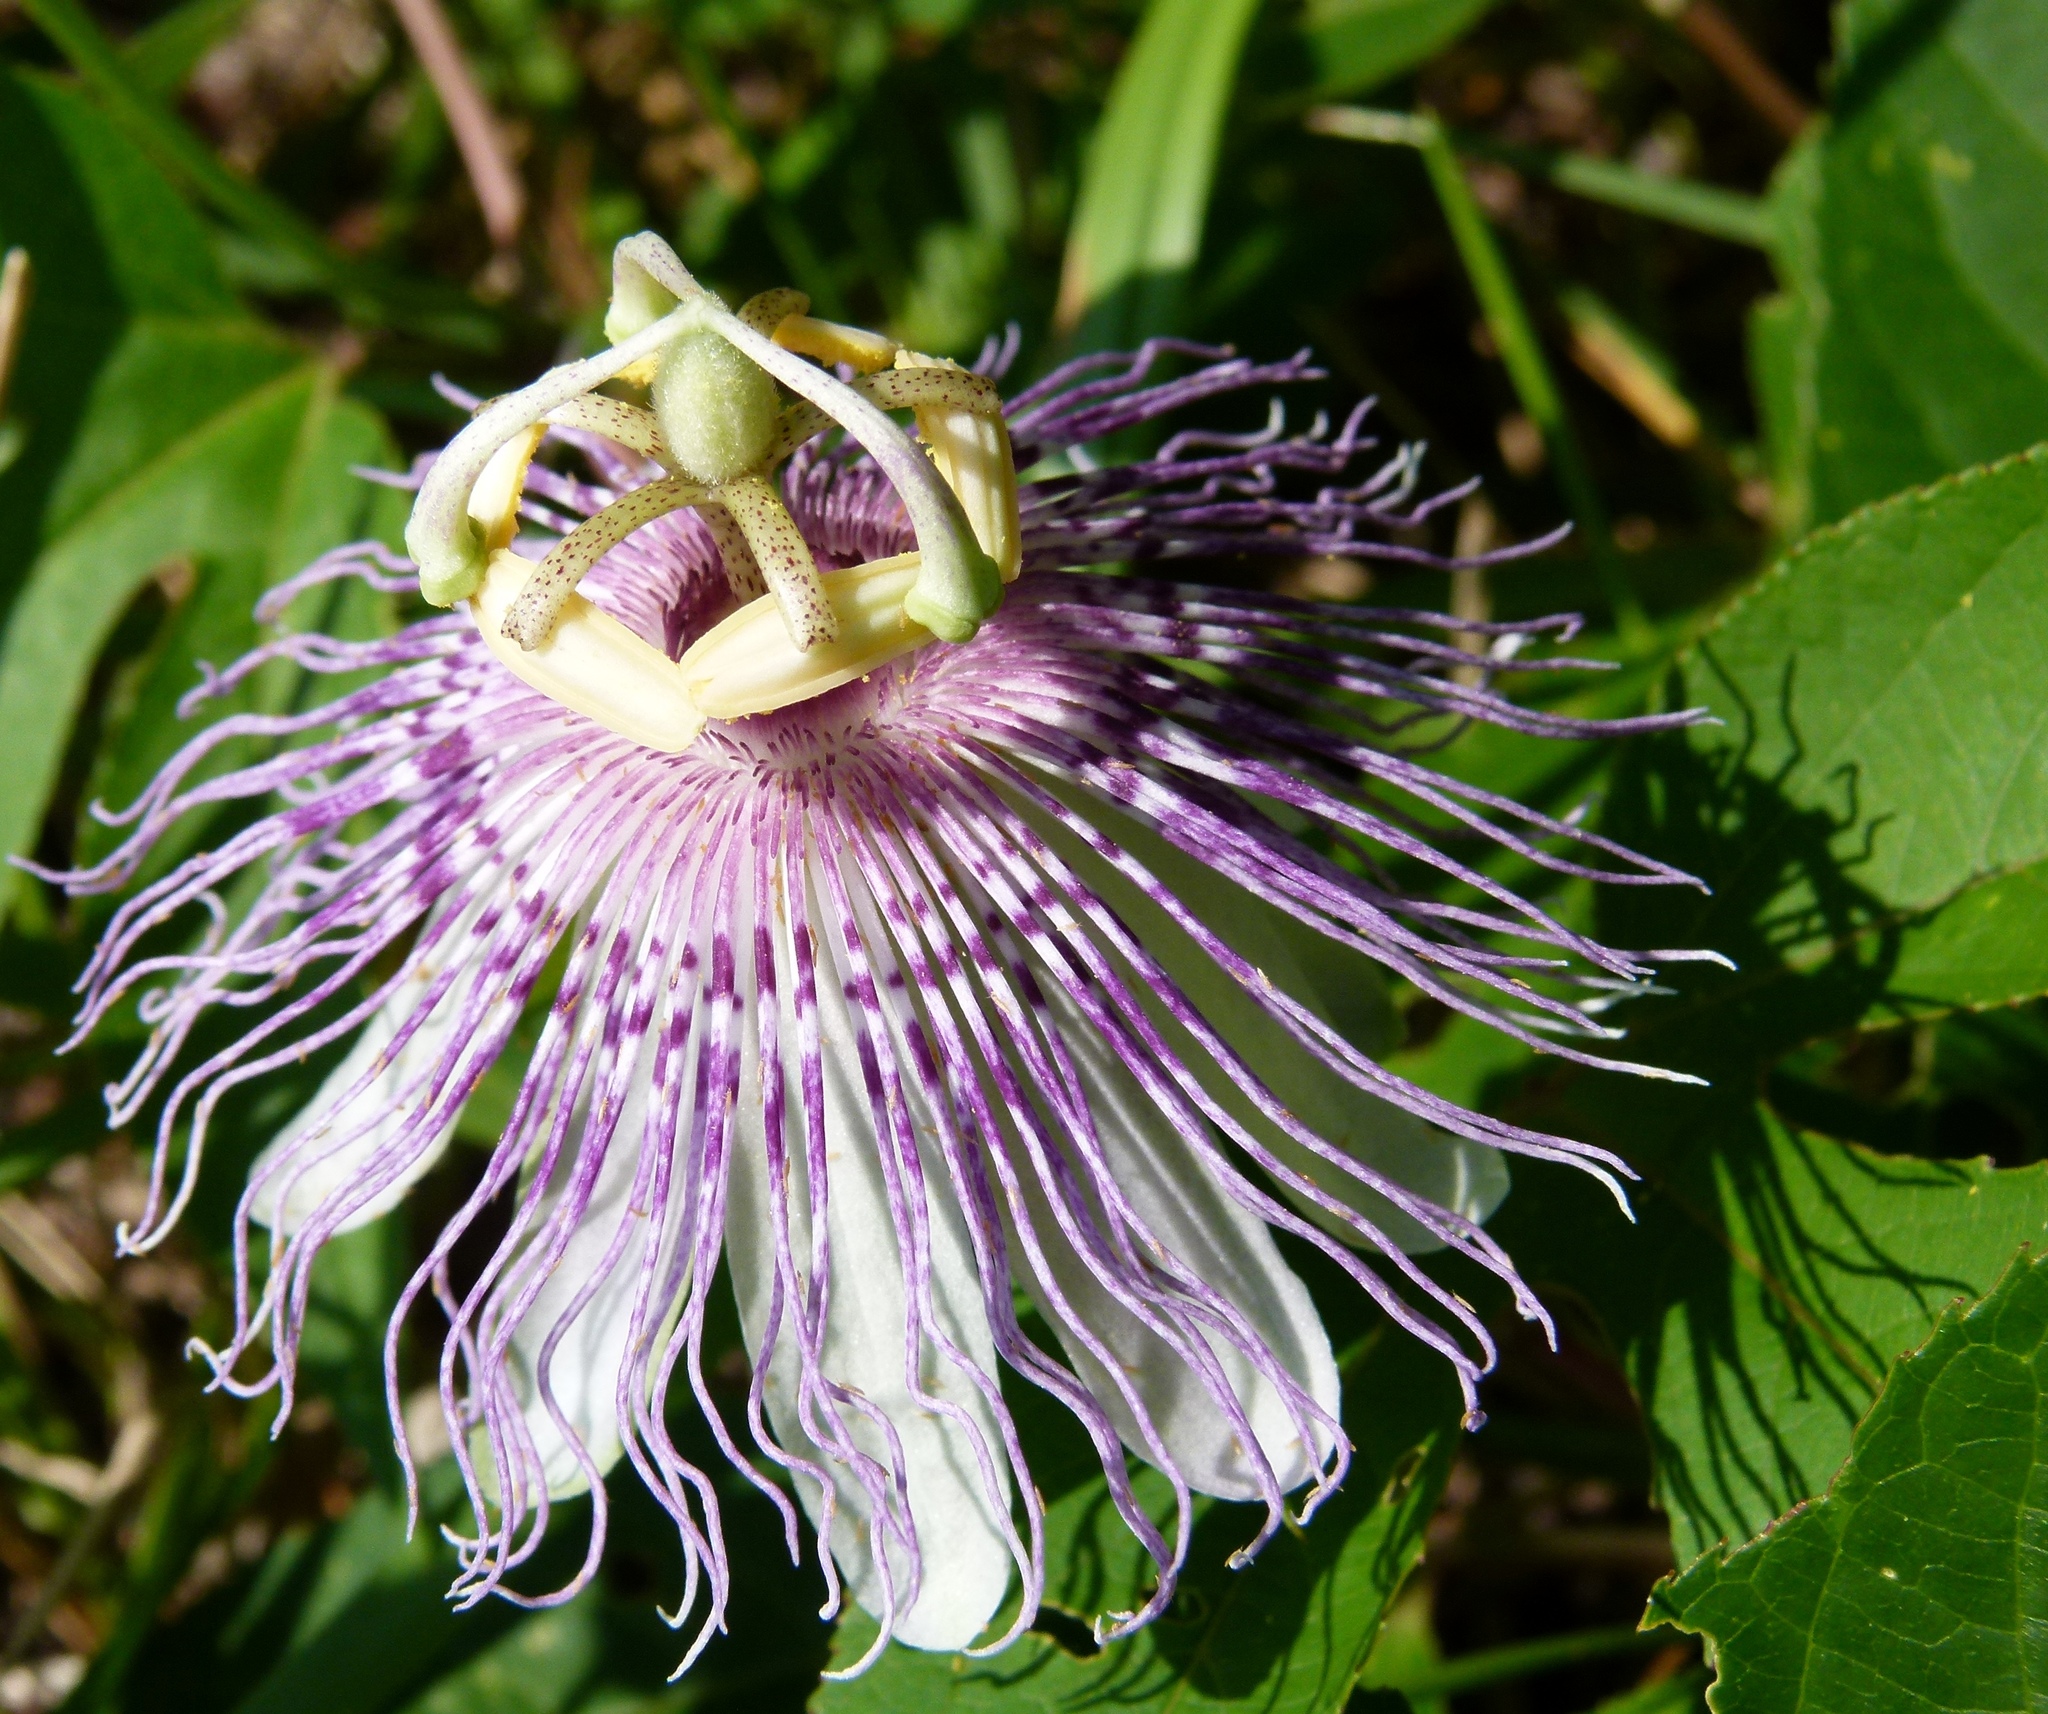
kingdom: Plantae
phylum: Tracheophyta
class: Magnoliopsida
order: Malpighiales
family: Passifloraceae
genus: Passiflora
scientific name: Passiflora incarnata
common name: Apricot-vine
